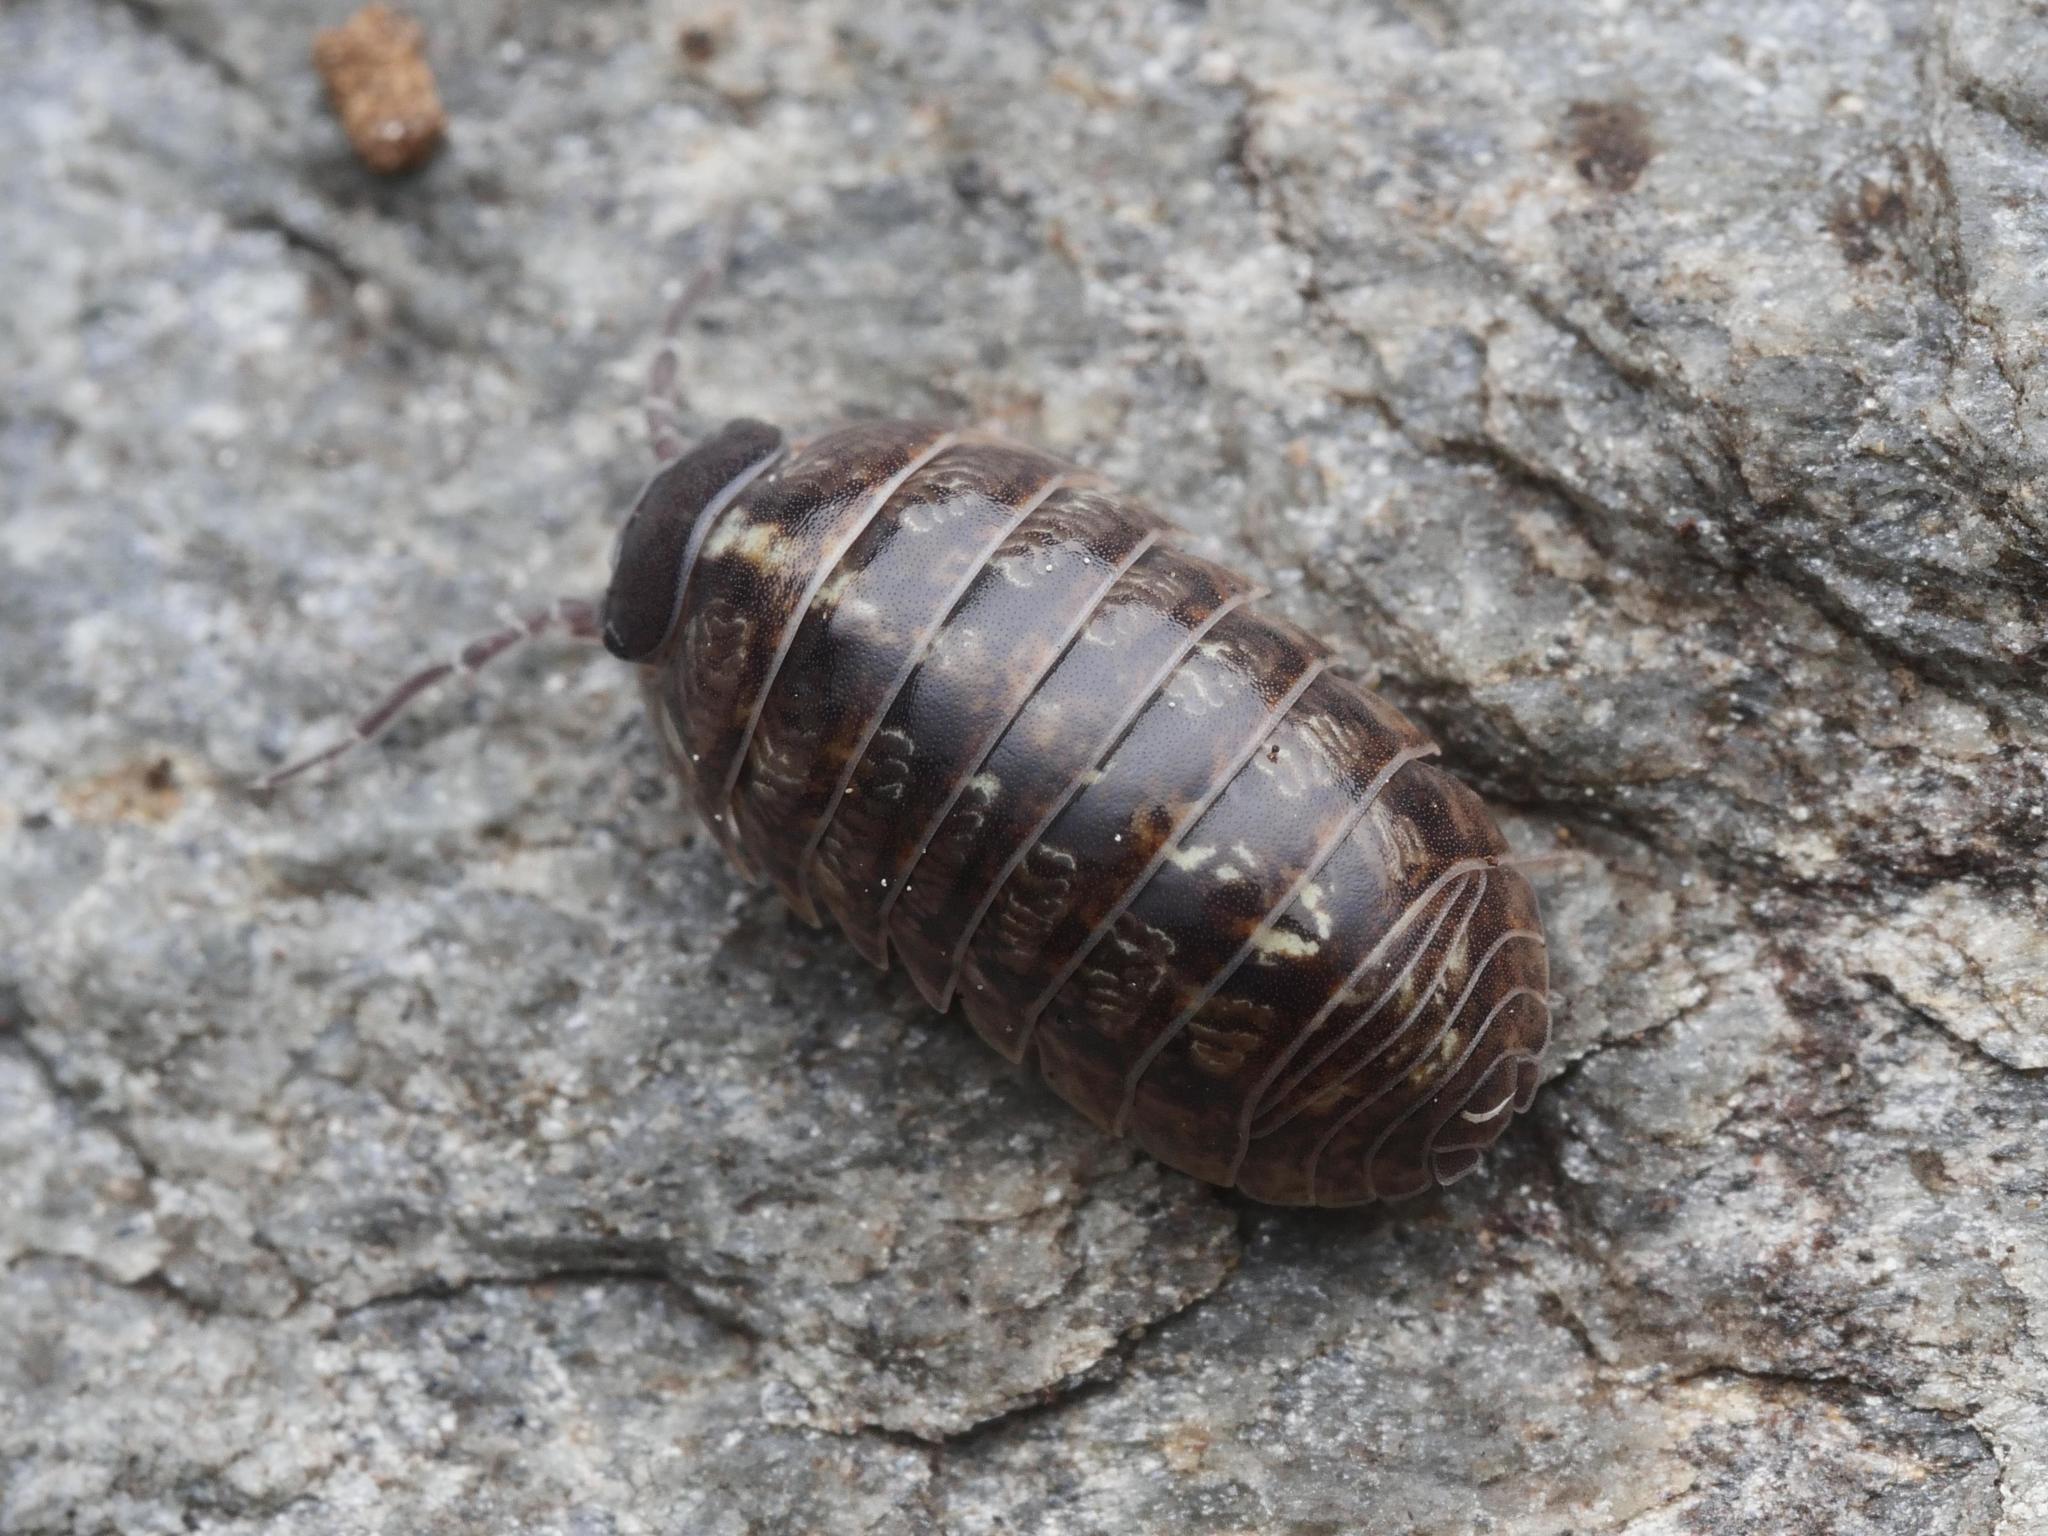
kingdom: Animalia
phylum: Arthropoda
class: Malacostraca
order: Isopoda
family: Armadillidiidae
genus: Armadillidium
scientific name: Armadillidium vulgare
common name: Common pill woodlouse
